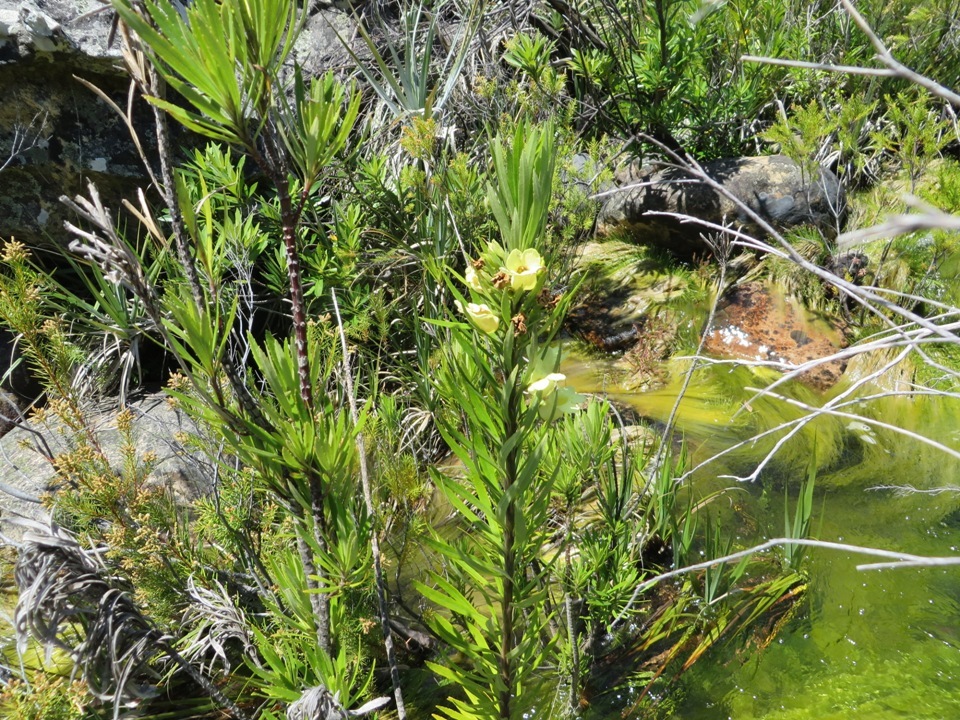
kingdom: Plantae
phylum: Tracheophyta
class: Magnoliopsida
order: Lamiales
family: Stilbaceae
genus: Ixianthes
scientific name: Ixianthes retzioides
